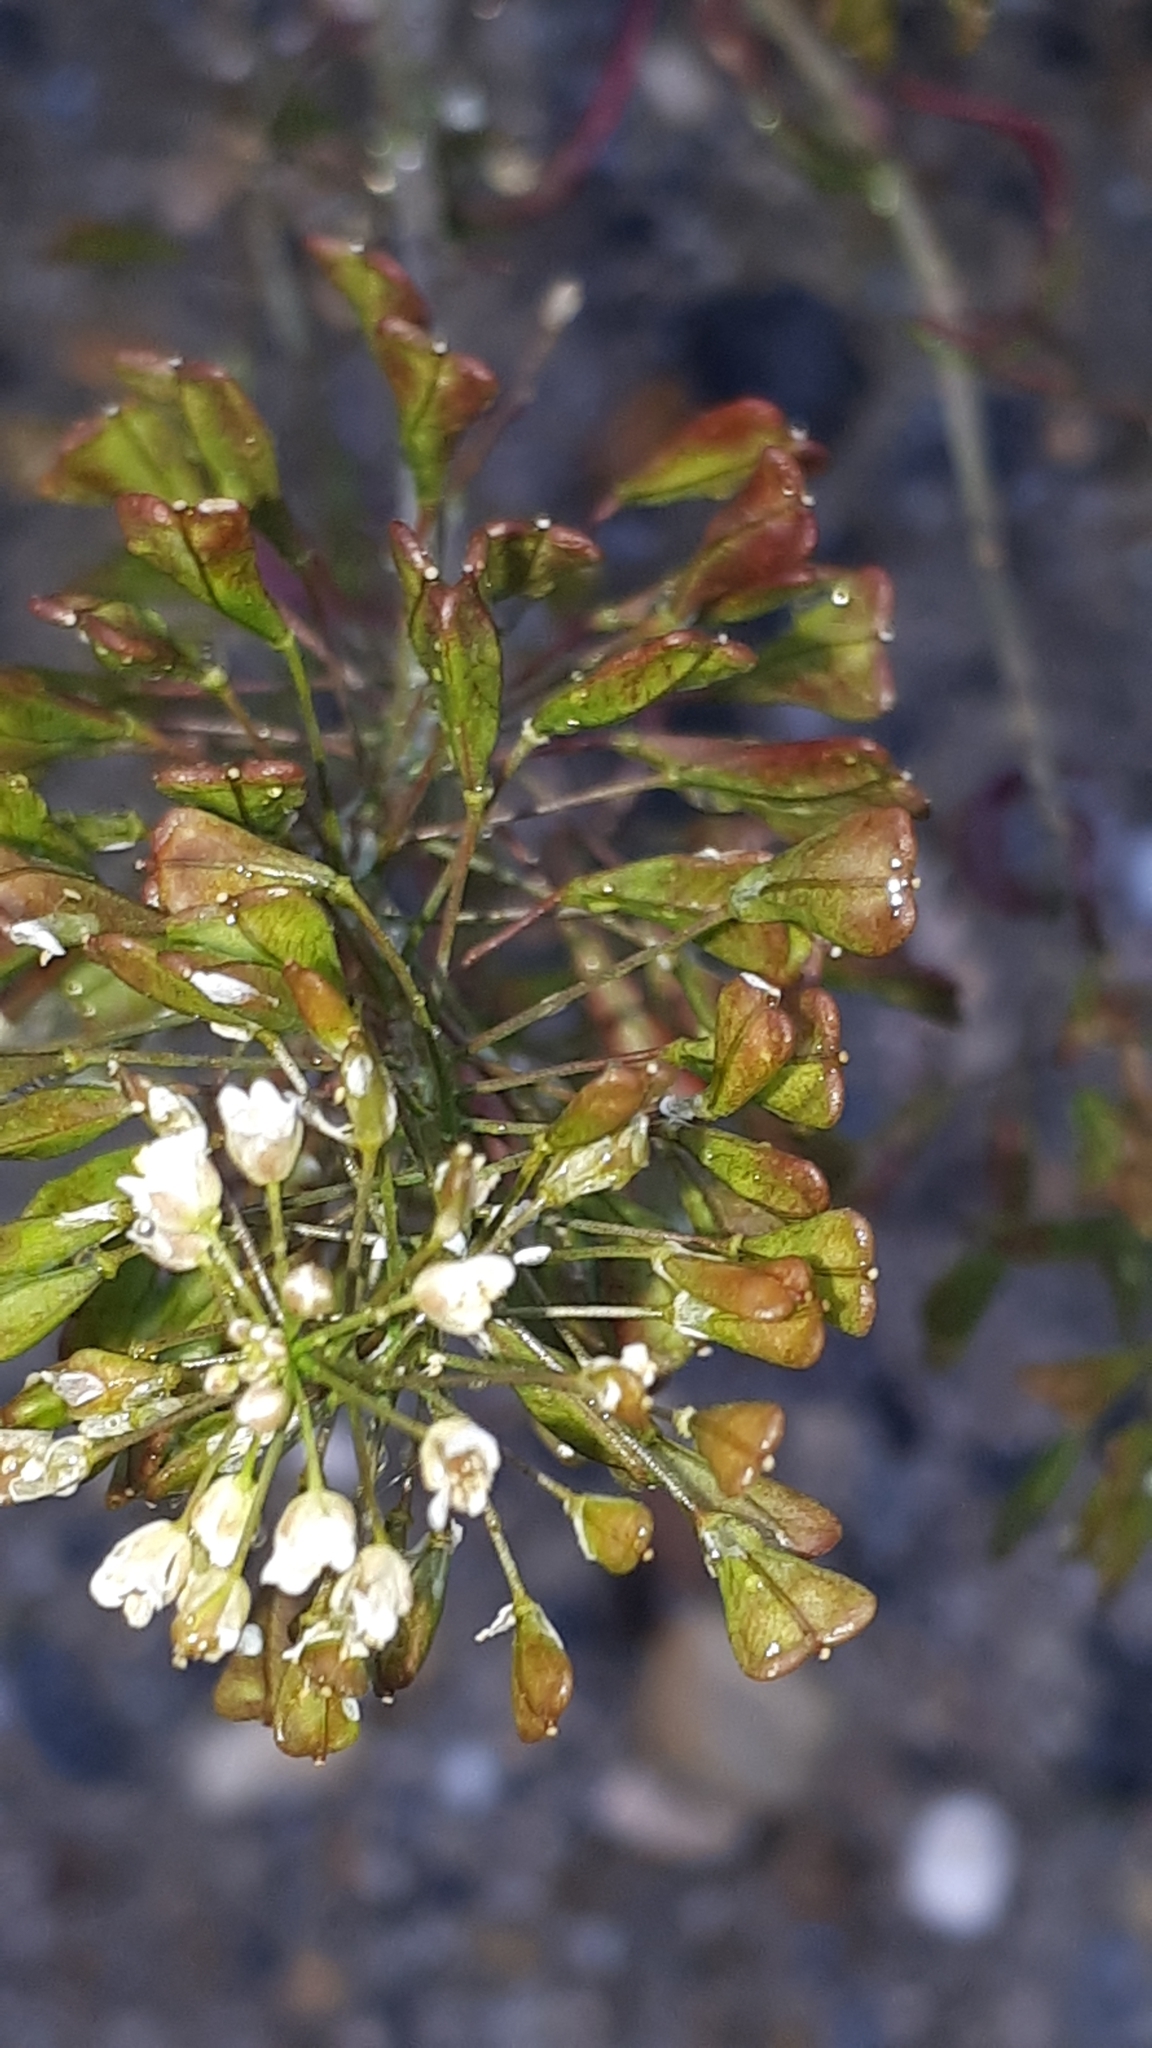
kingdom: Plantae
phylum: Tracheophyta
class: Magnoliopsida
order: Brassicales
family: Brassicaceae
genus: Capsella
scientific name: Capsella bursa-pastoris
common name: Shepherd's purse
